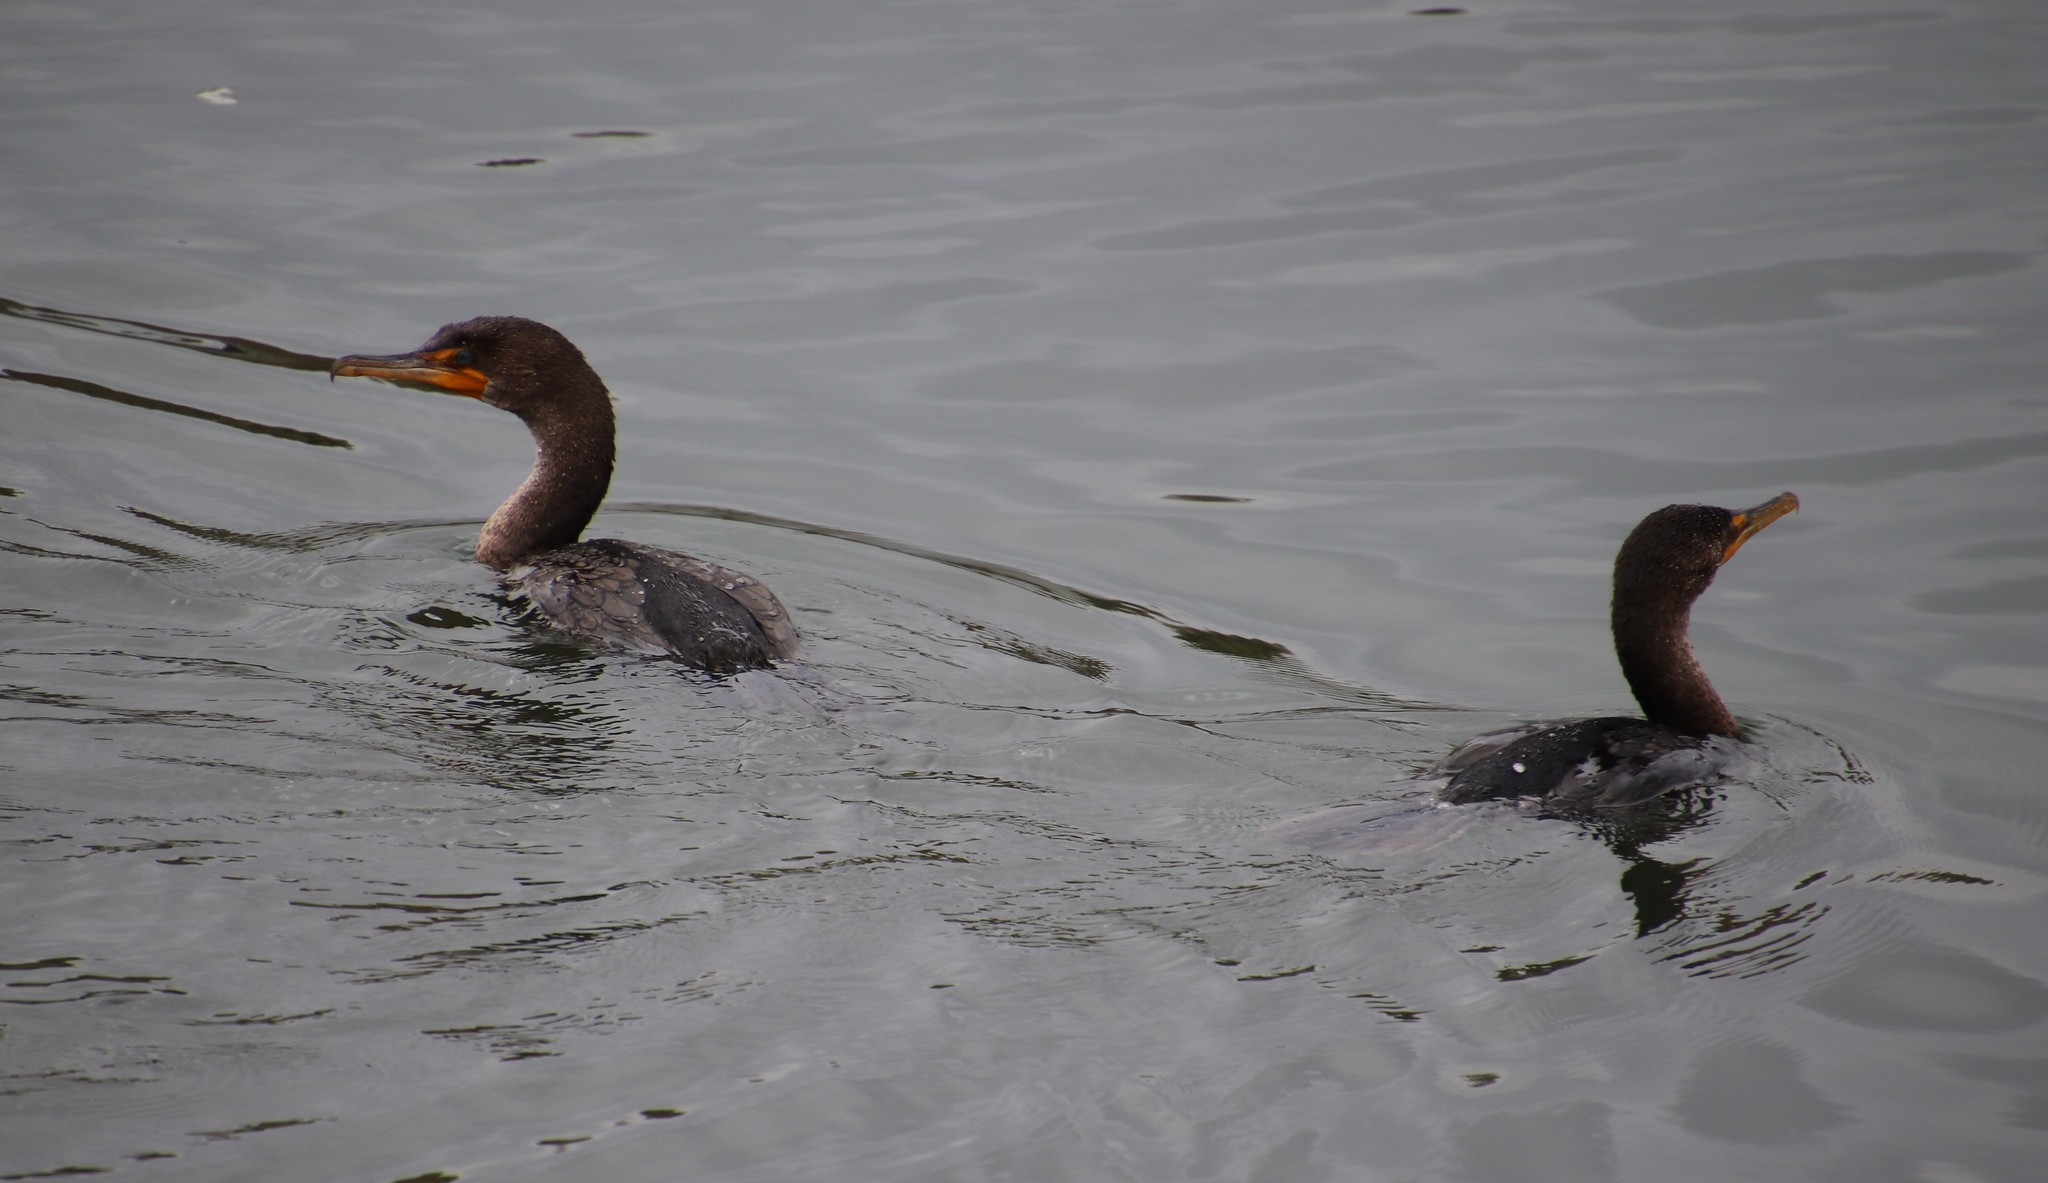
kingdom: Animalia
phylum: Chordata
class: Aves
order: Suliformes
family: Phalacrocoracidae
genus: Phalacrocorax
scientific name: Phalacrocorax auritus
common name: Double-crested cormorant
